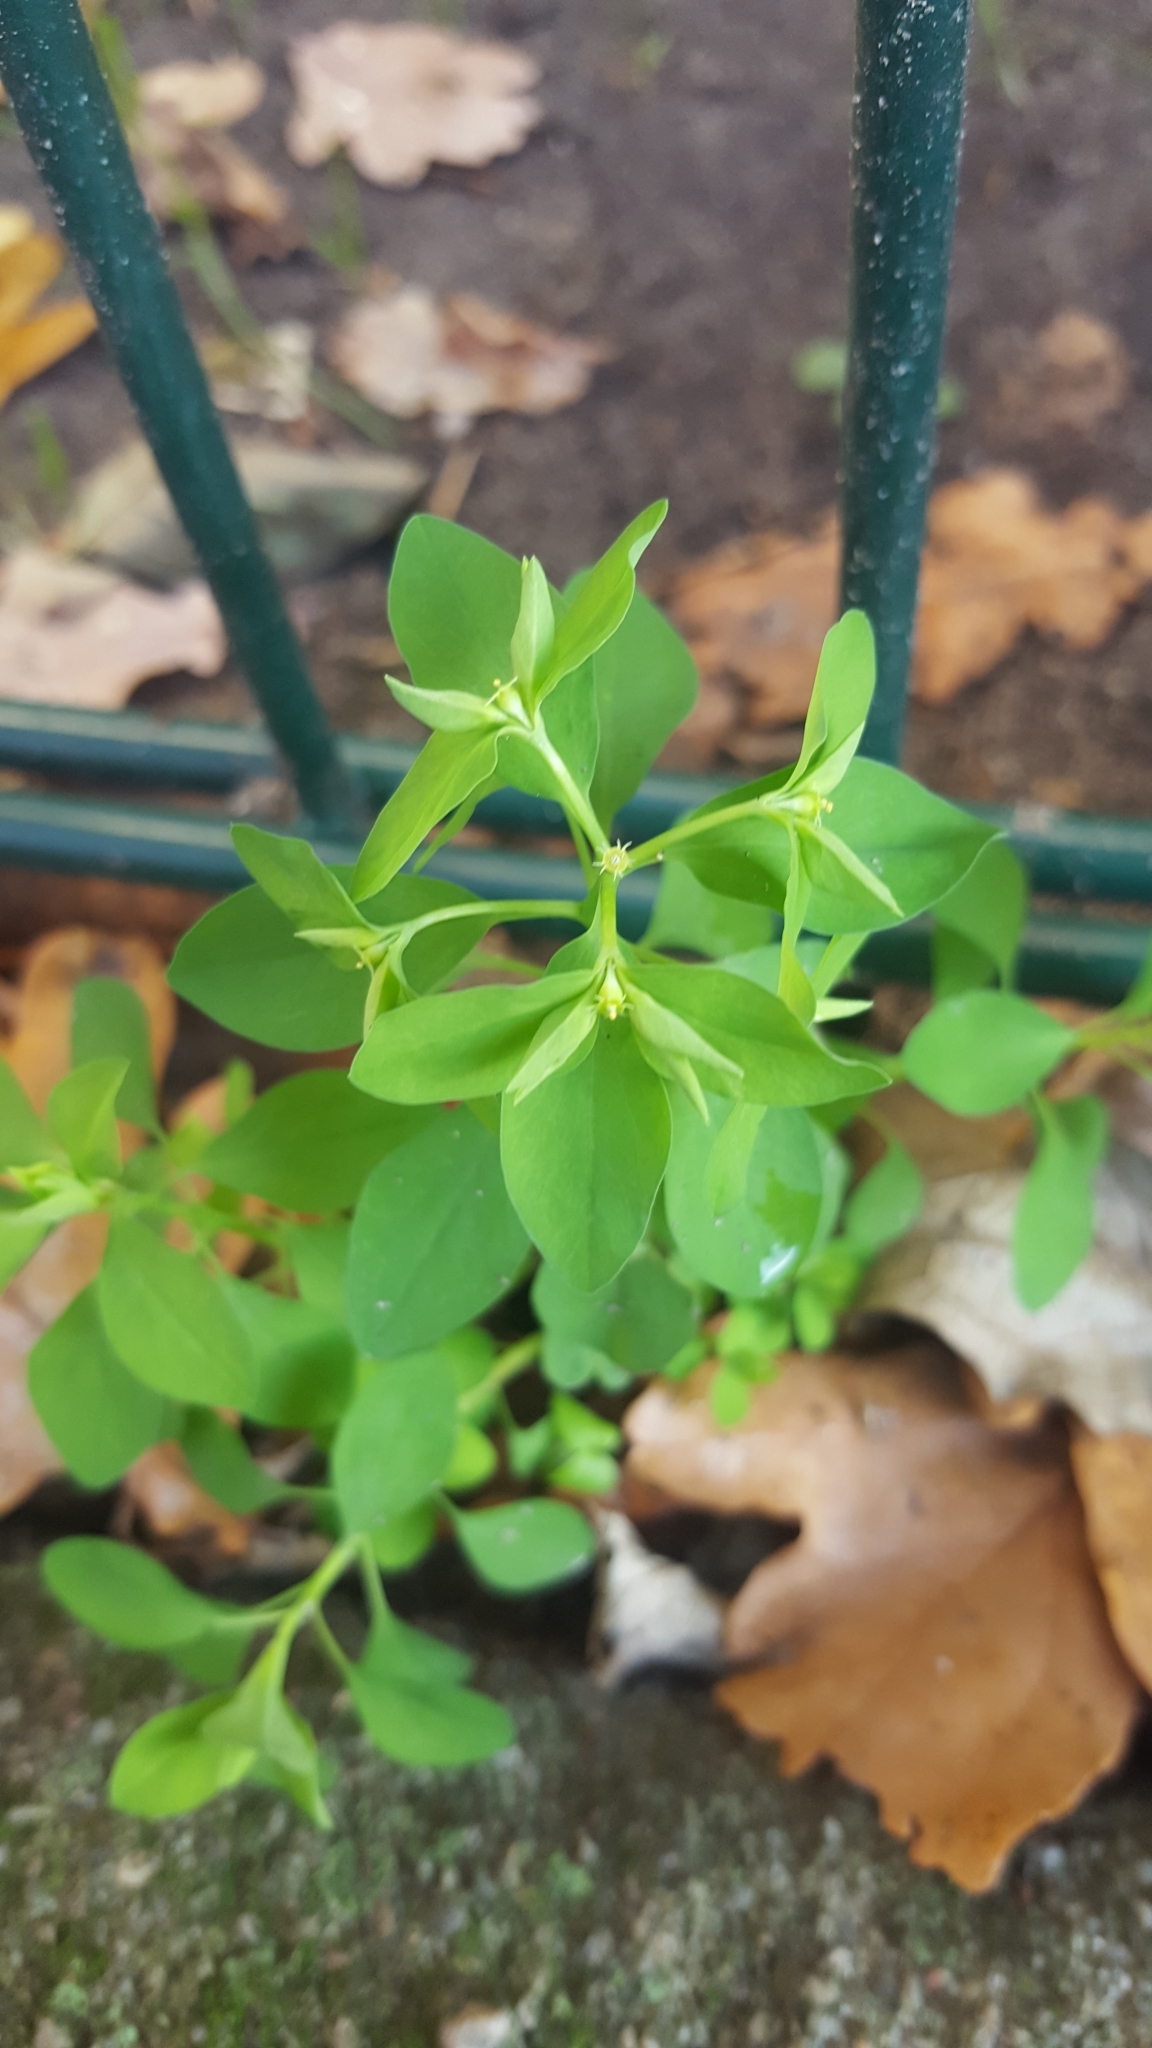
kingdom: Plantae
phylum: Tracheophyta
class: Magnoliopsida
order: Malpighiales
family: Euphorbiaceae
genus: Euphorbia
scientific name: Euphorbia peplus
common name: Petty spurge
